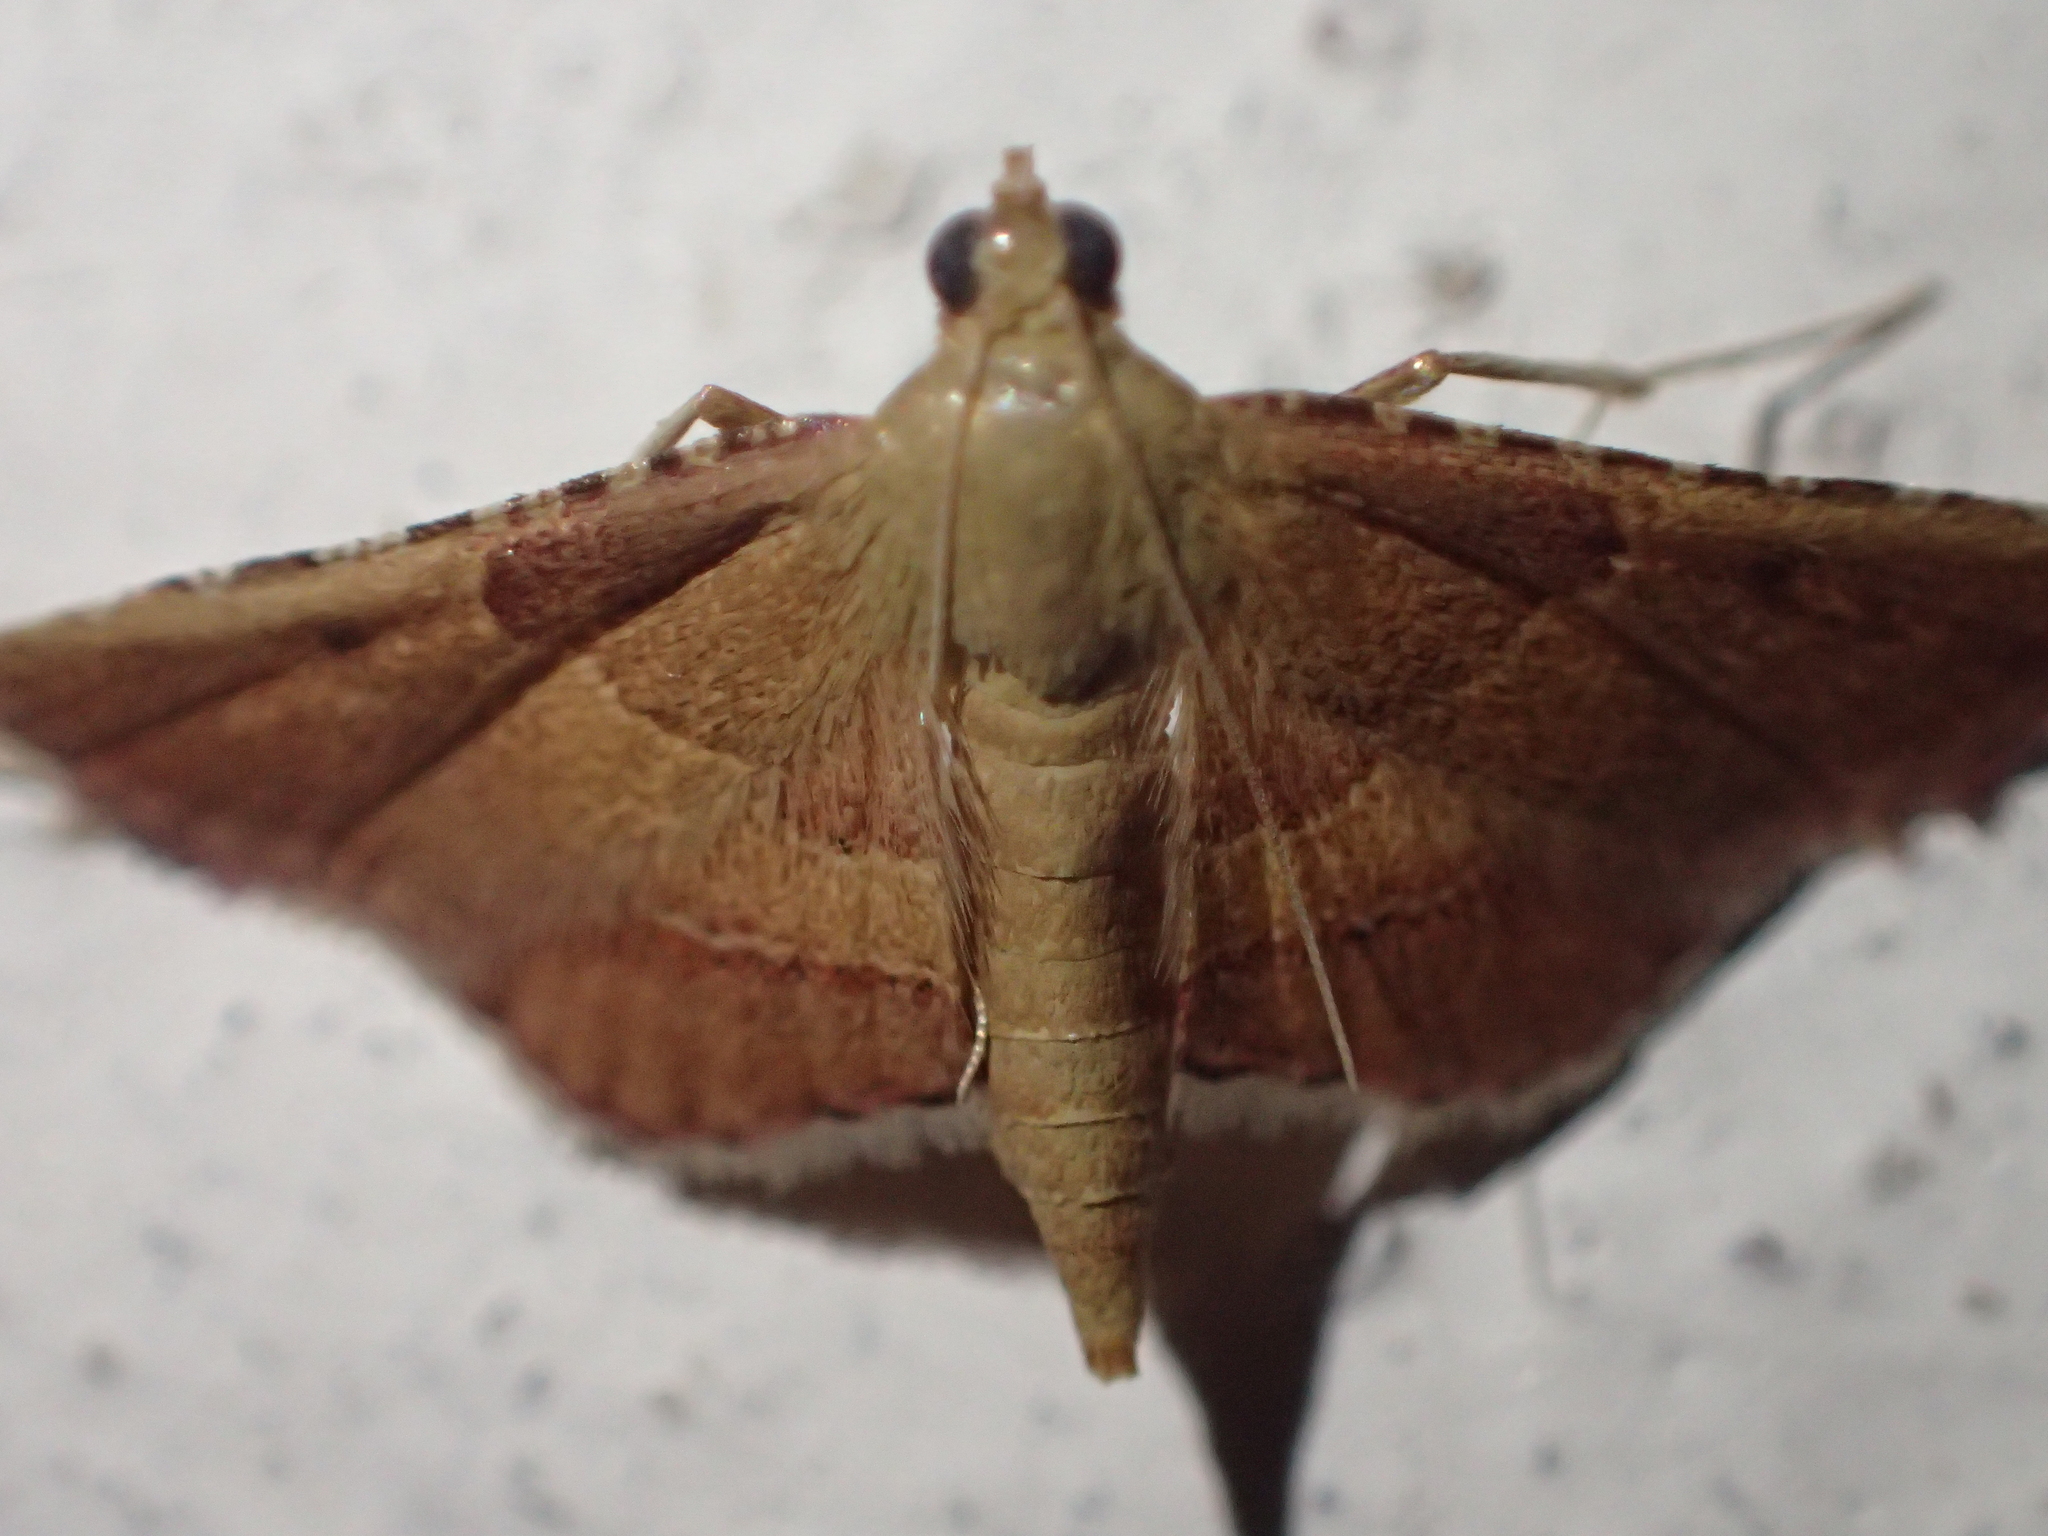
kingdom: Animalia
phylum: Arthropoda
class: Insecta
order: Lepidoptera
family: Pyralidae
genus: Endotricha
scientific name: Endotricha flammealis
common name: Rosy tabby
